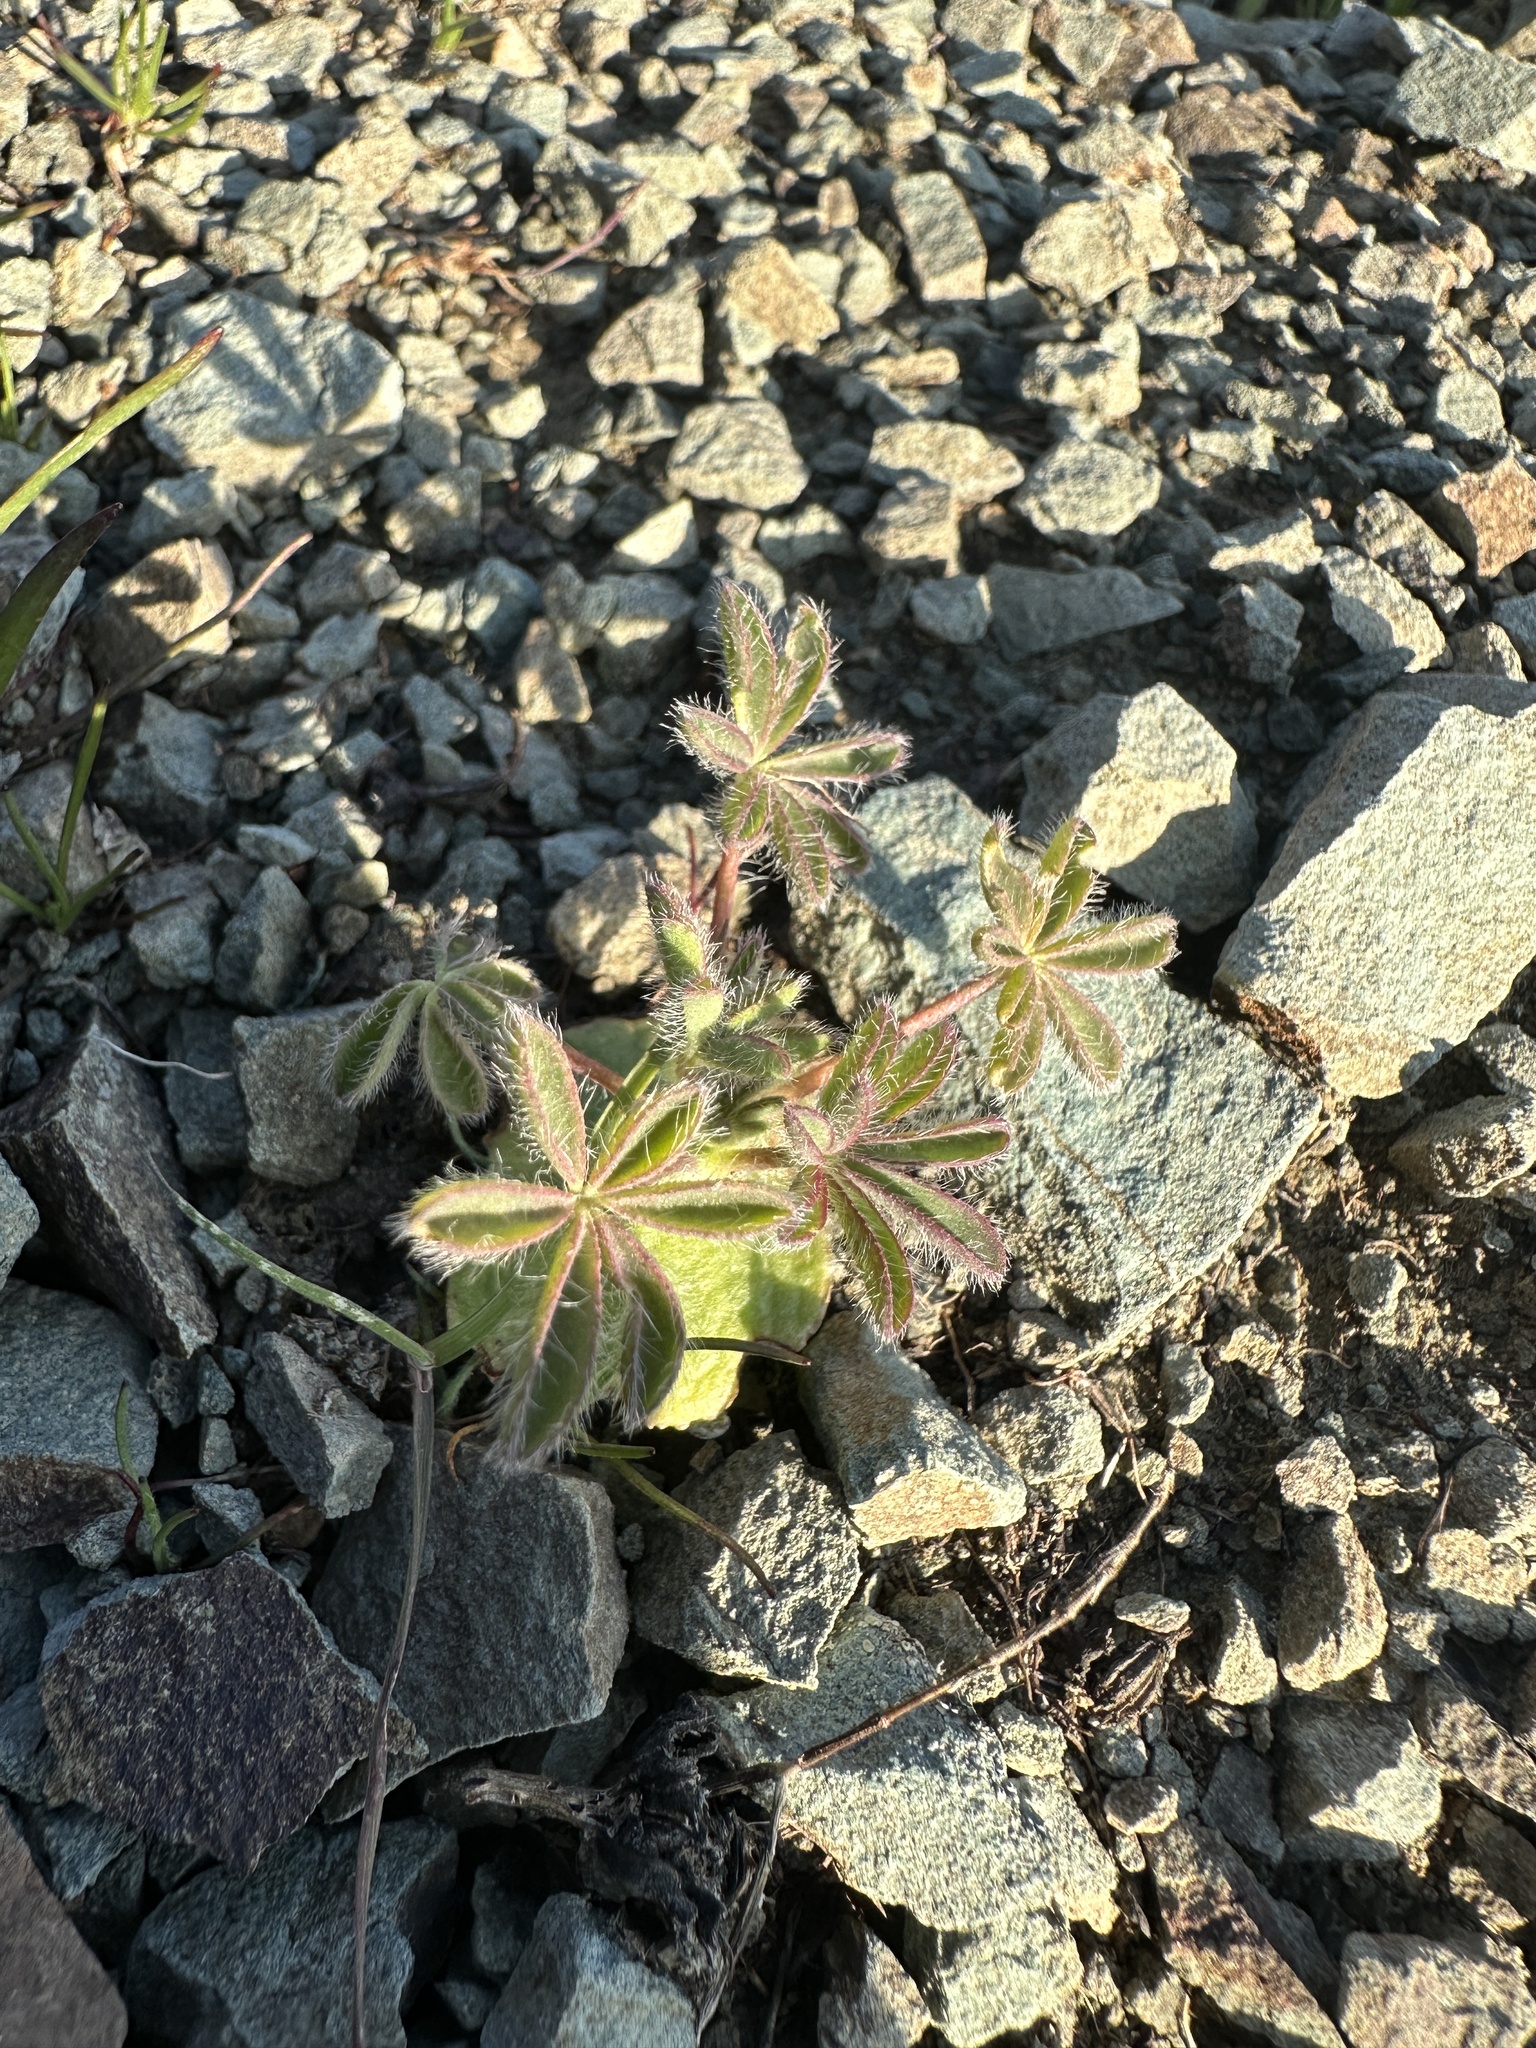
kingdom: Plantae
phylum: Tracheophyta
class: Magnoliopsida
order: Fabales
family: Fabaceae
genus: Lupinus
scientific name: Lupinus microcarpus
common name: Chick lupine
